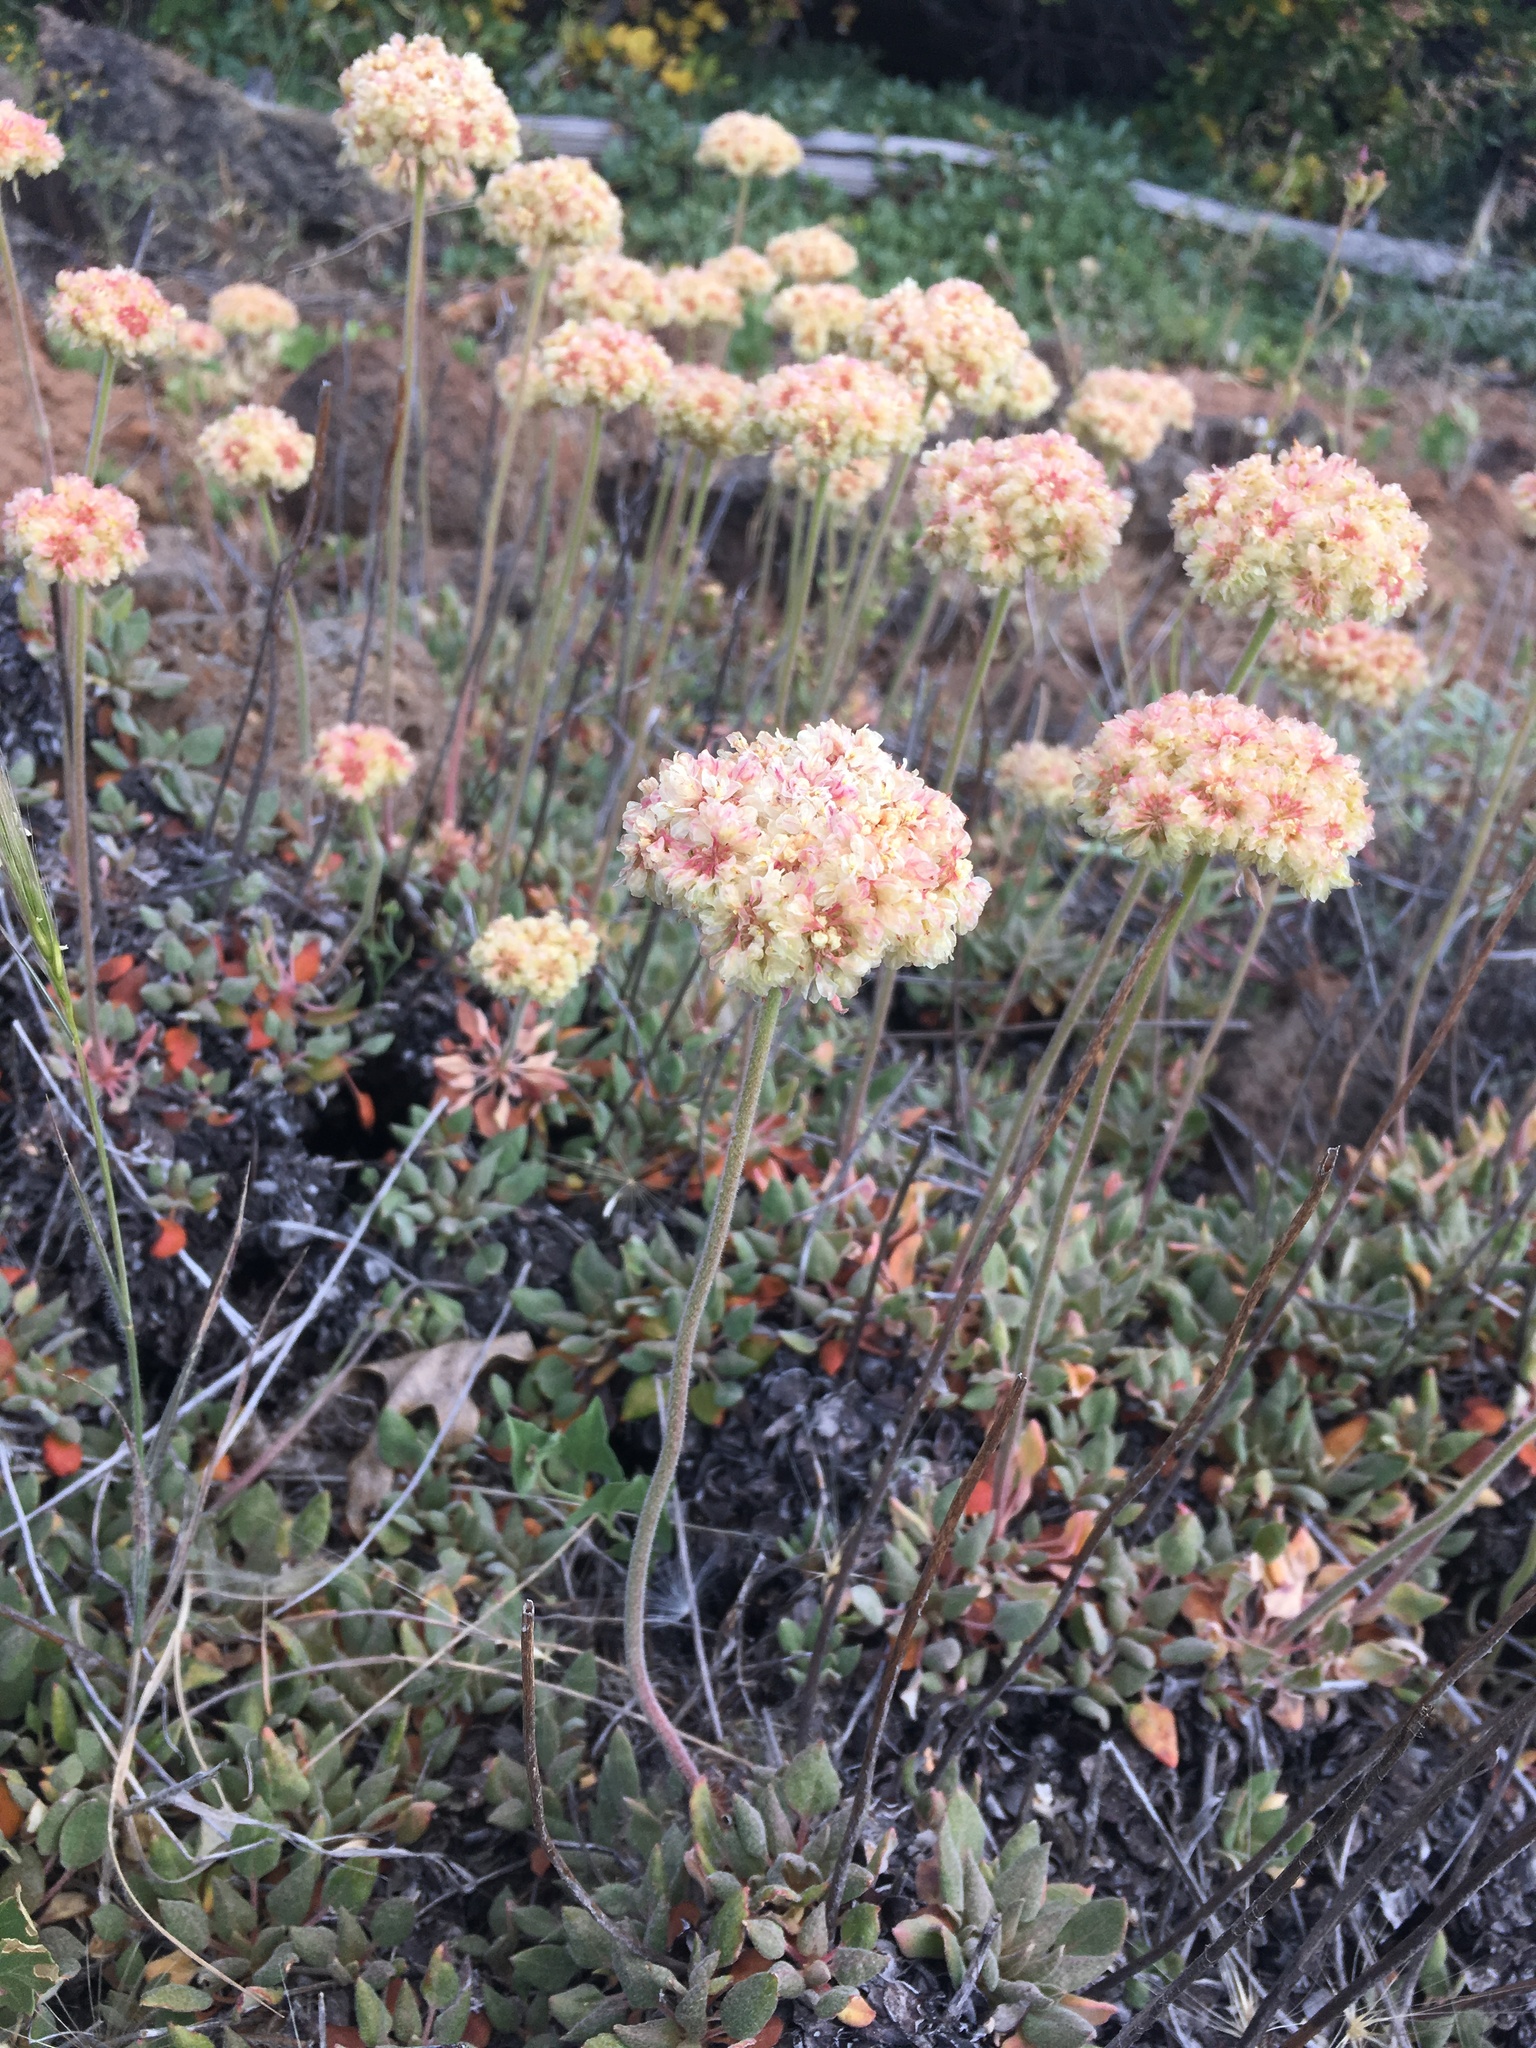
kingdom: Plantae
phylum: Tracheophyta
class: Magnoliopsida
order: Caryophyllales
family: Polygonaceae
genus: Eriogonum
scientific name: Eriogonum ursinum
